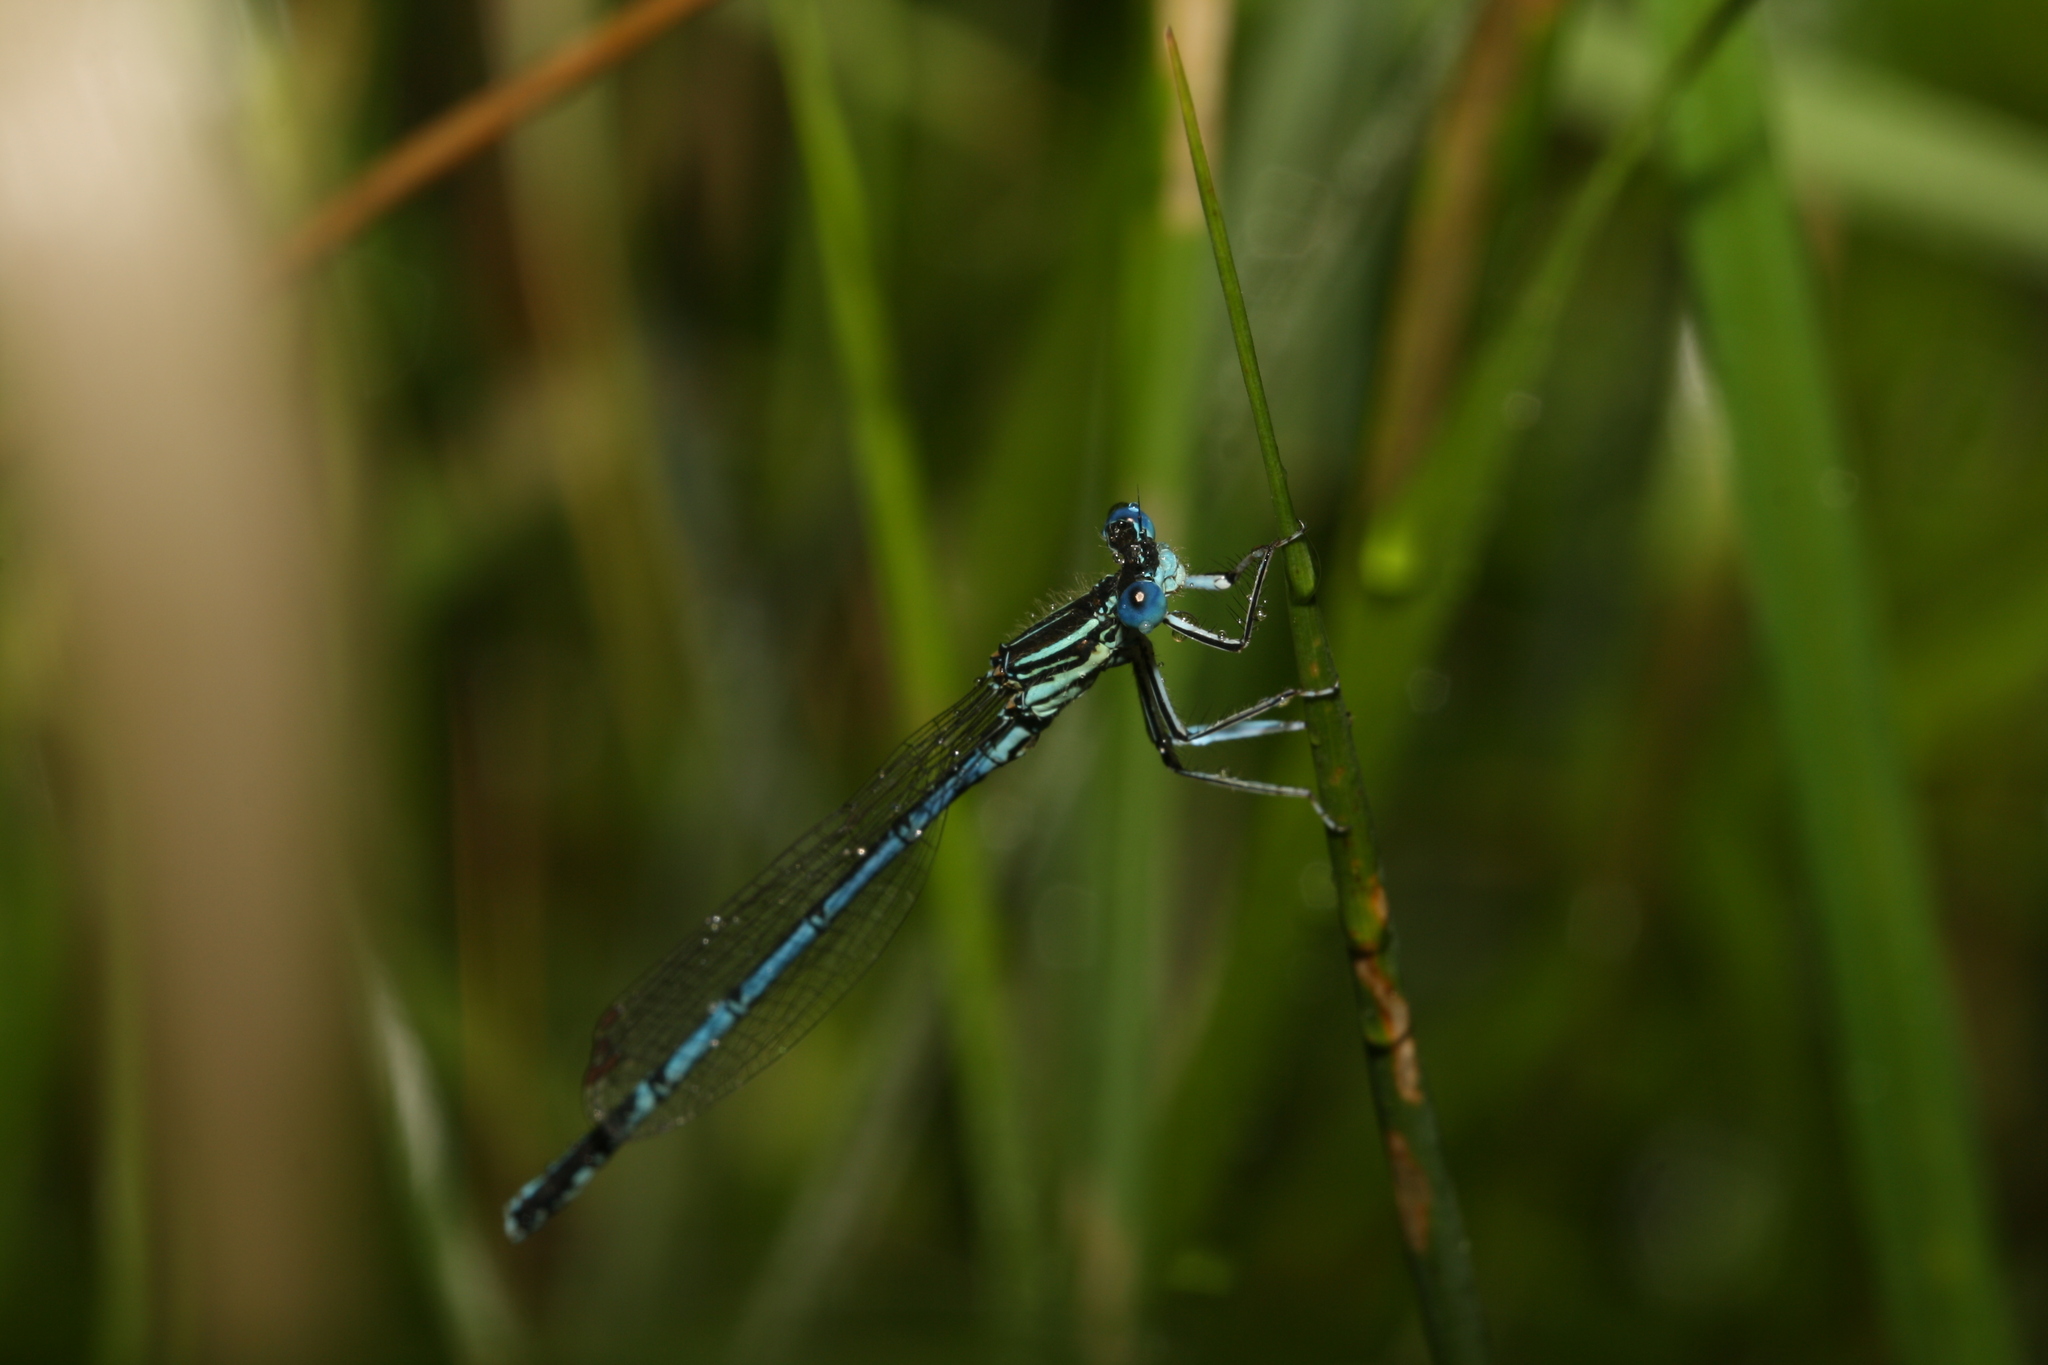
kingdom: Animalia
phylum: Arthropoda
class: Insecta
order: Odonata
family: Platycnemididae
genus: Platycnemis
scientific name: Platycnemis pennipes
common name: White-legged damselfly
